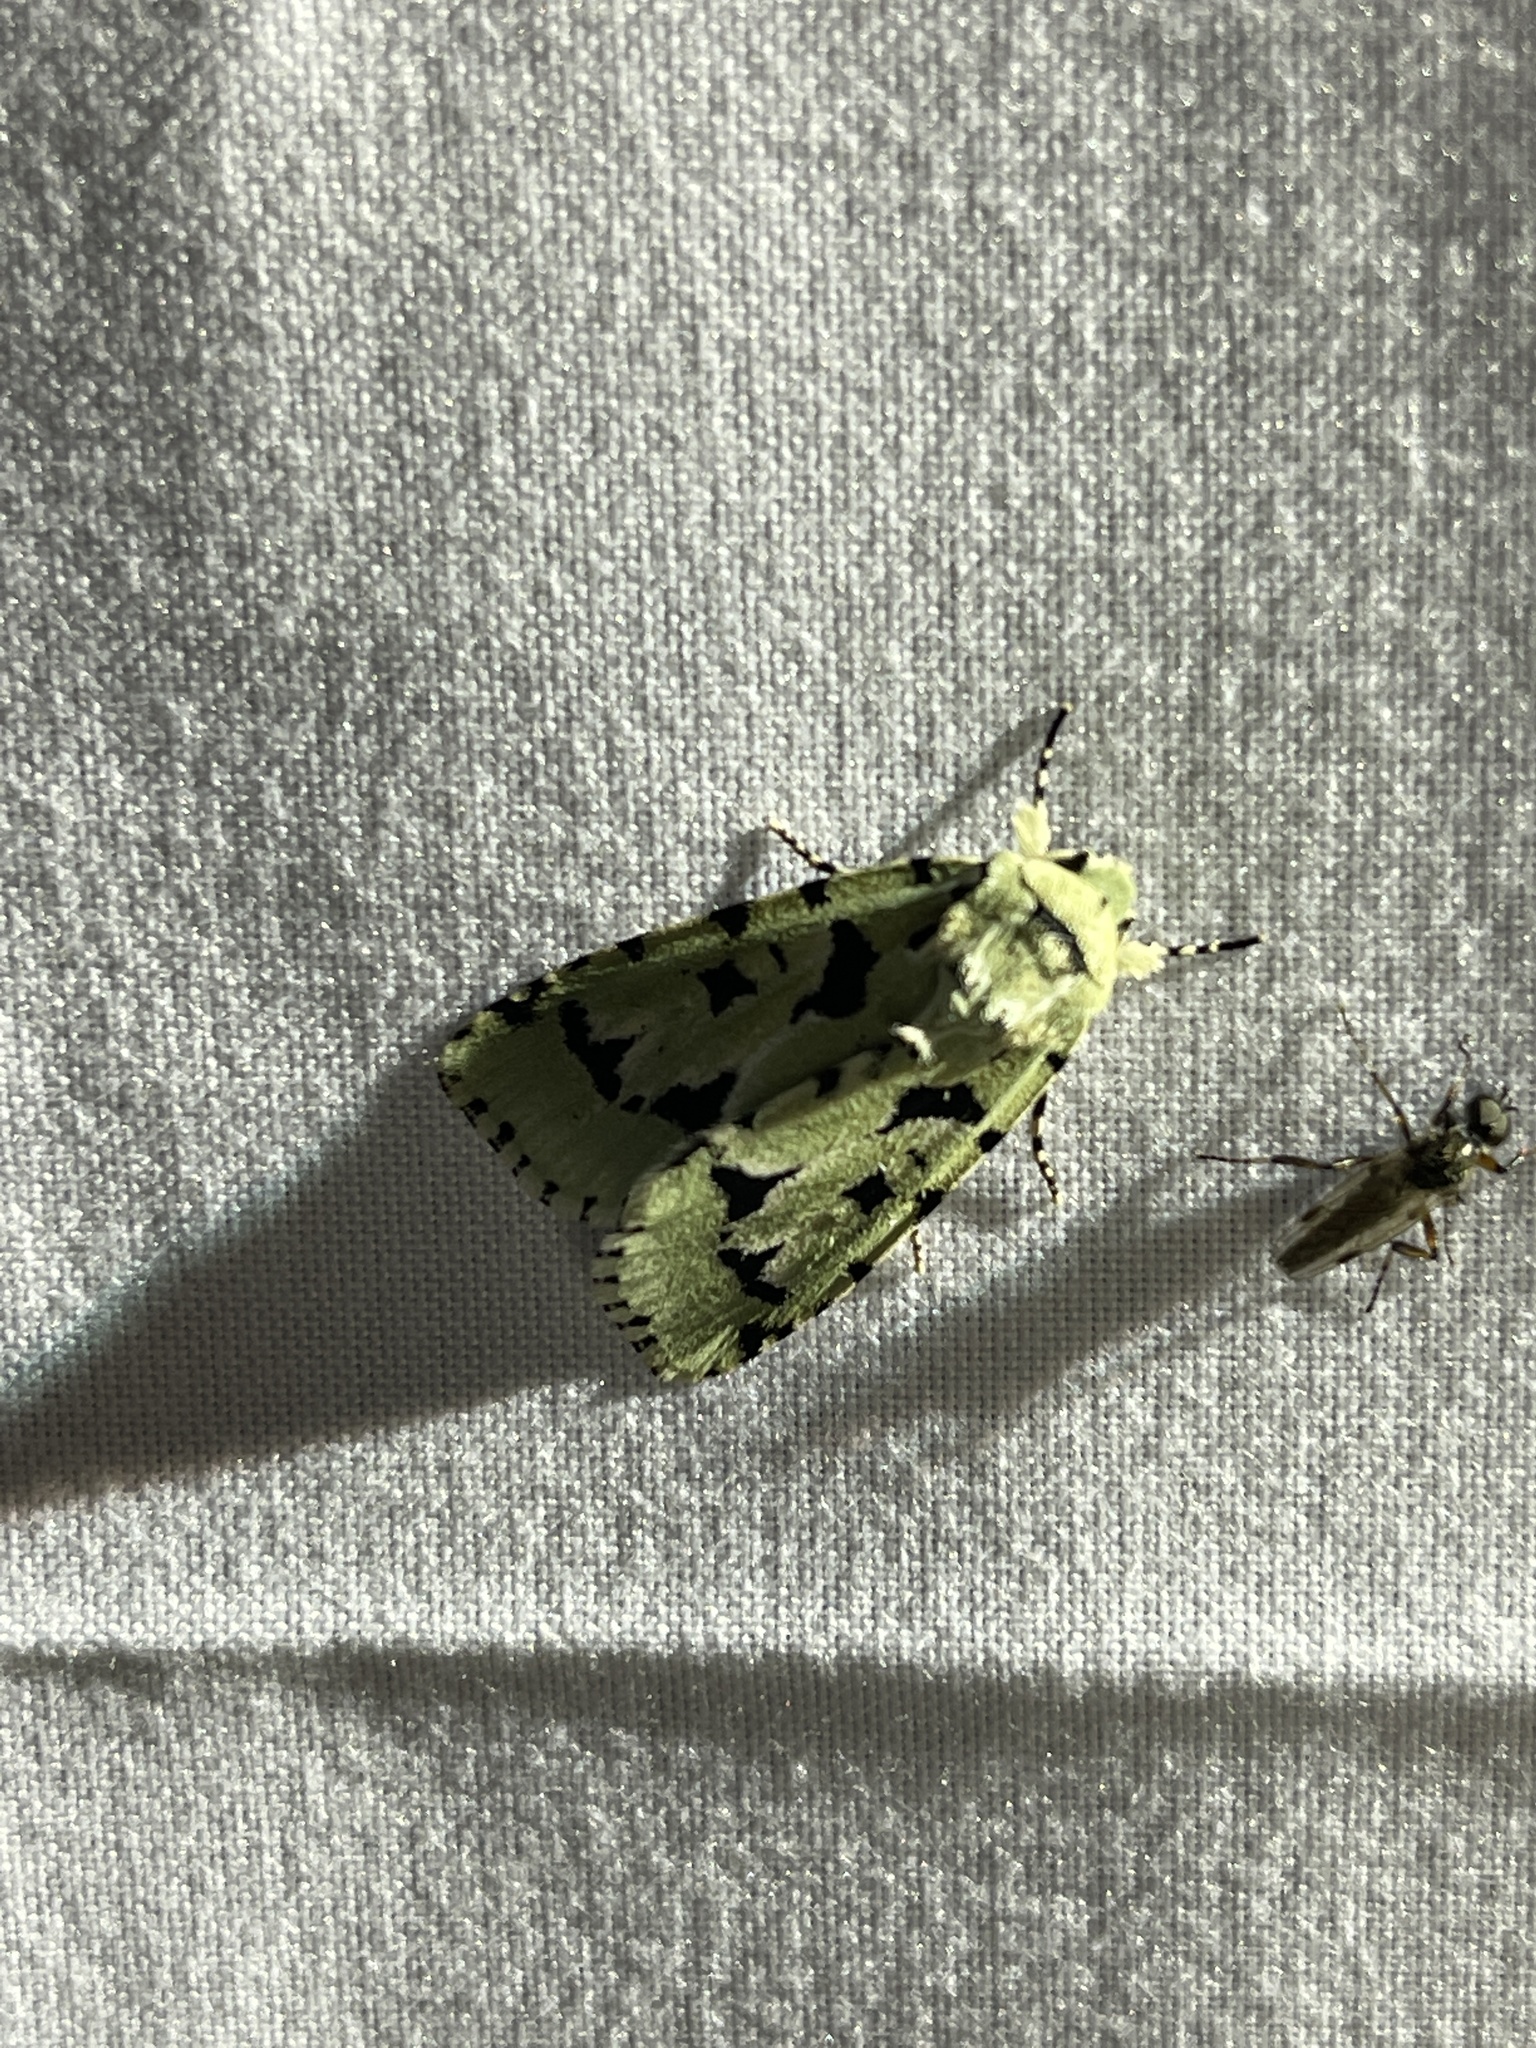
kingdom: Animalia
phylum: Arthropoda
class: Insecta
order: Lepidoptera
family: Noctuidae
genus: Acronicta
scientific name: Acronicta fallax
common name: Green marvel
